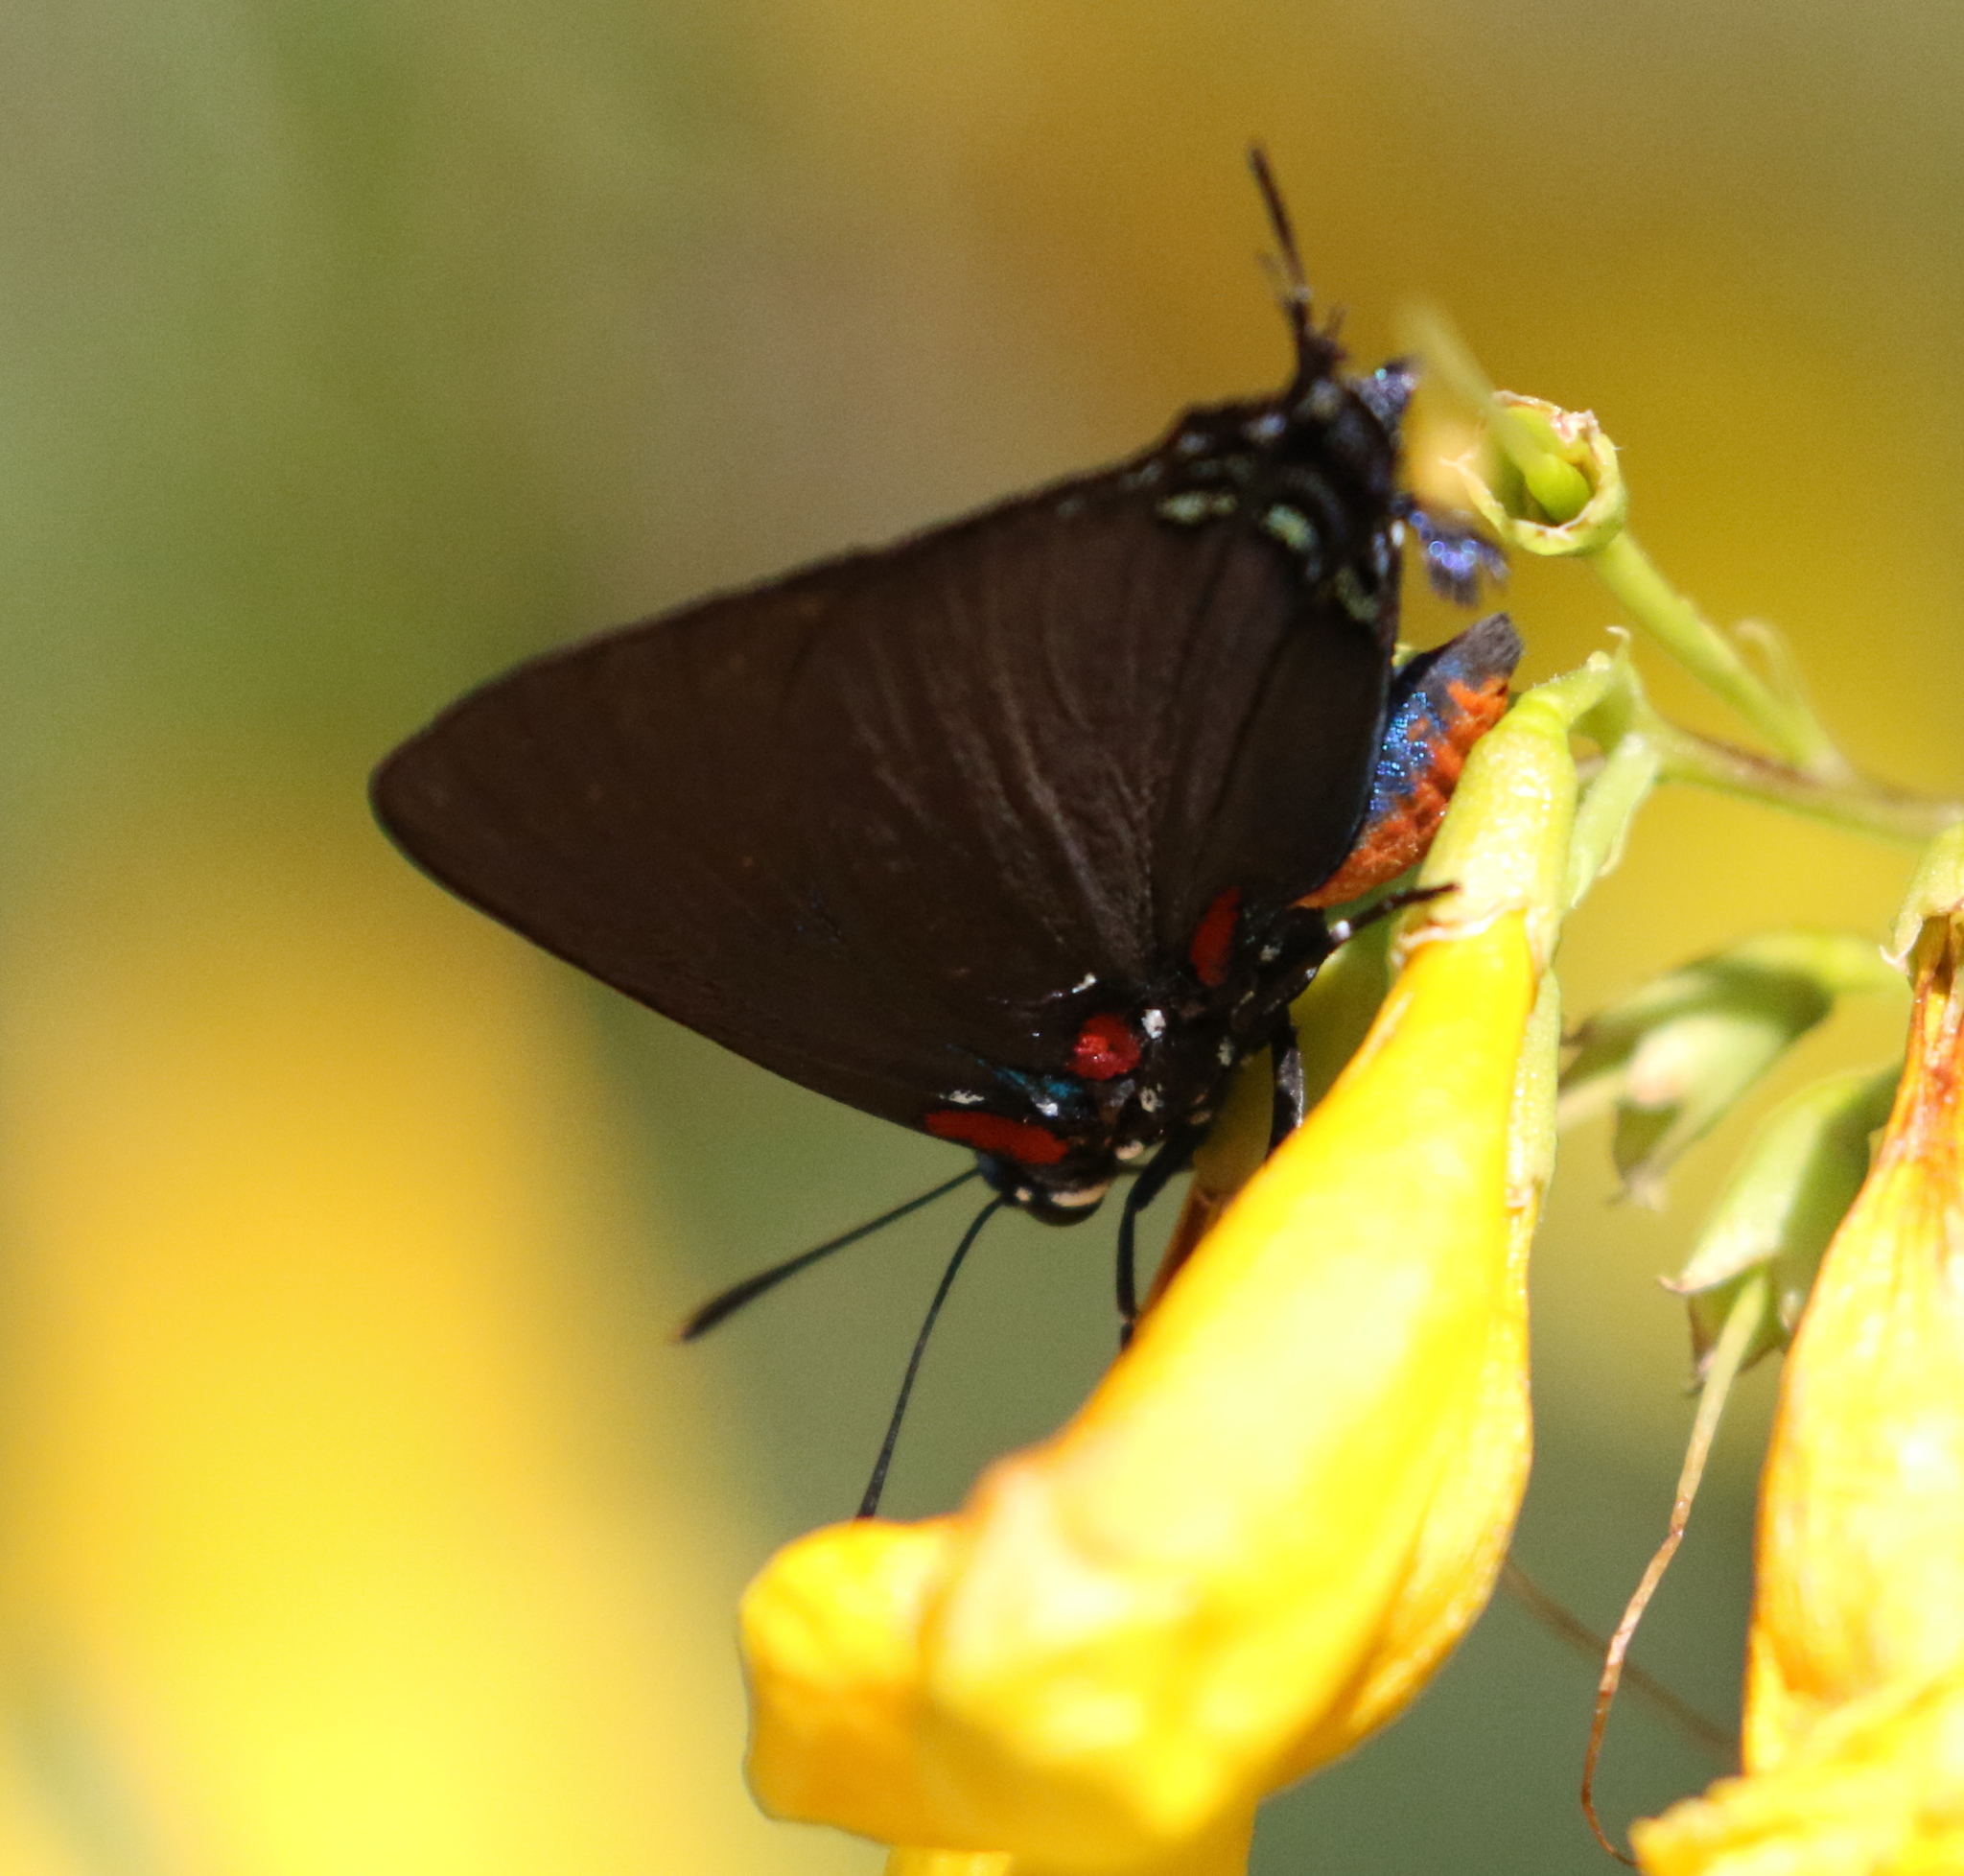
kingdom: Animalia
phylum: Arthropoda
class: Insecta
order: Lepidoptera
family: Lycaenidae
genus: Atlides
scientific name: Atlides halesus
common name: Great purple hairstreak
